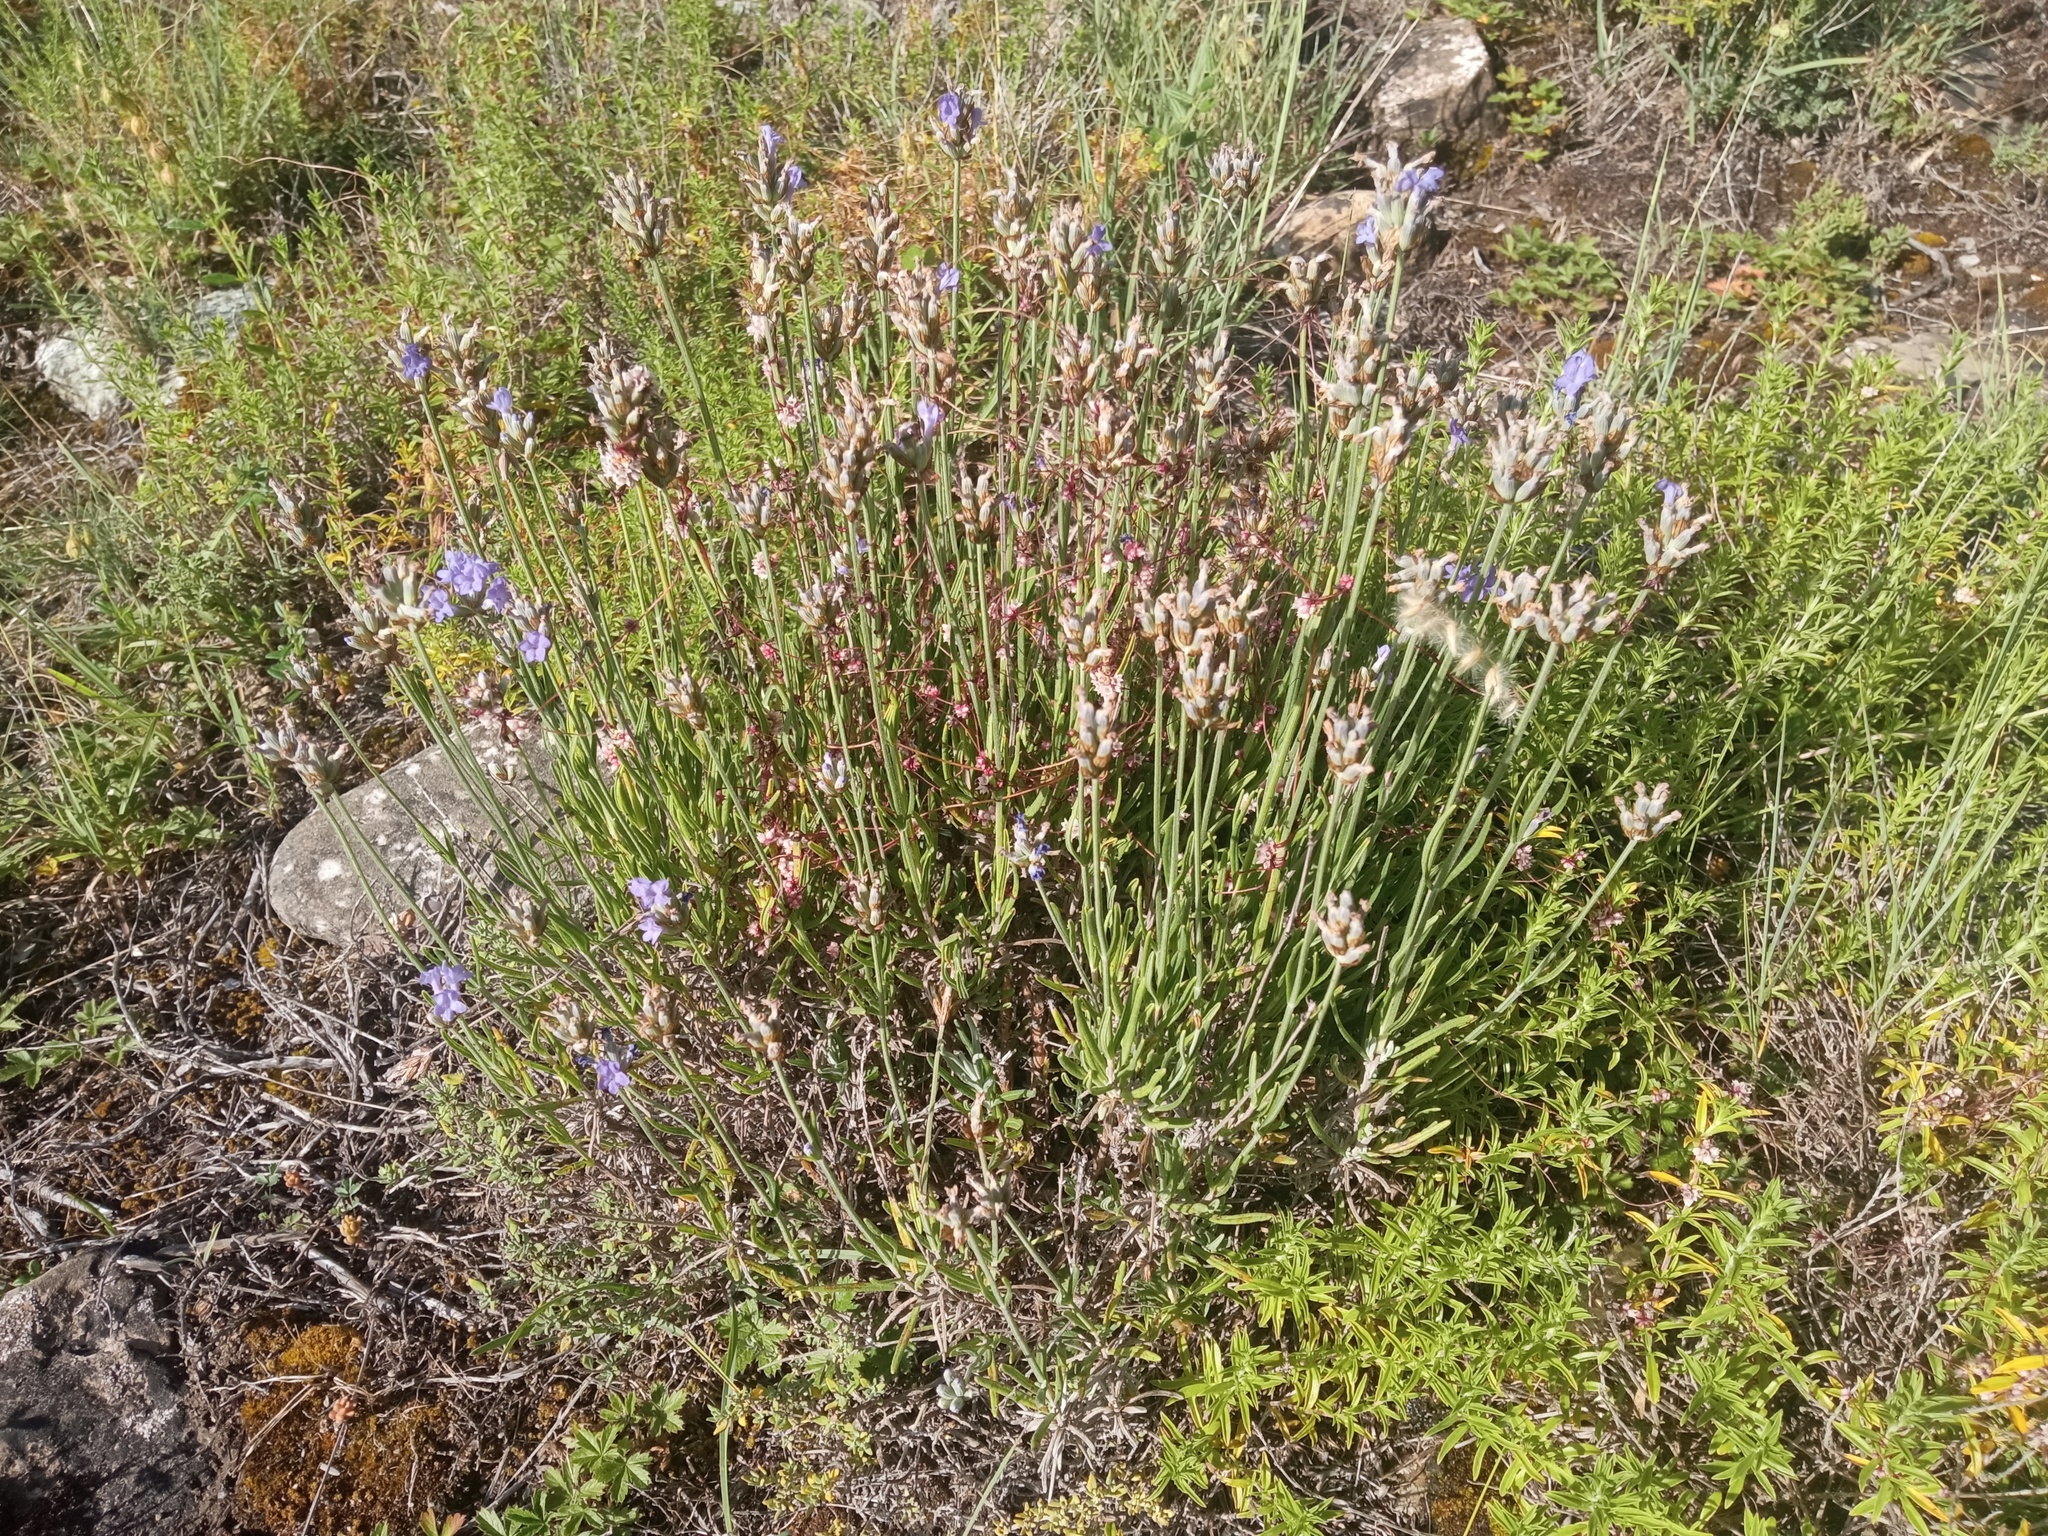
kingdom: Plantae
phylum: Tracheophyta
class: Magnoliopsida
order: Lamiales
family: Lamiaceae
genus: Lavandula
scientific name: Lavandula angustifolia
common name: Garden lavender
